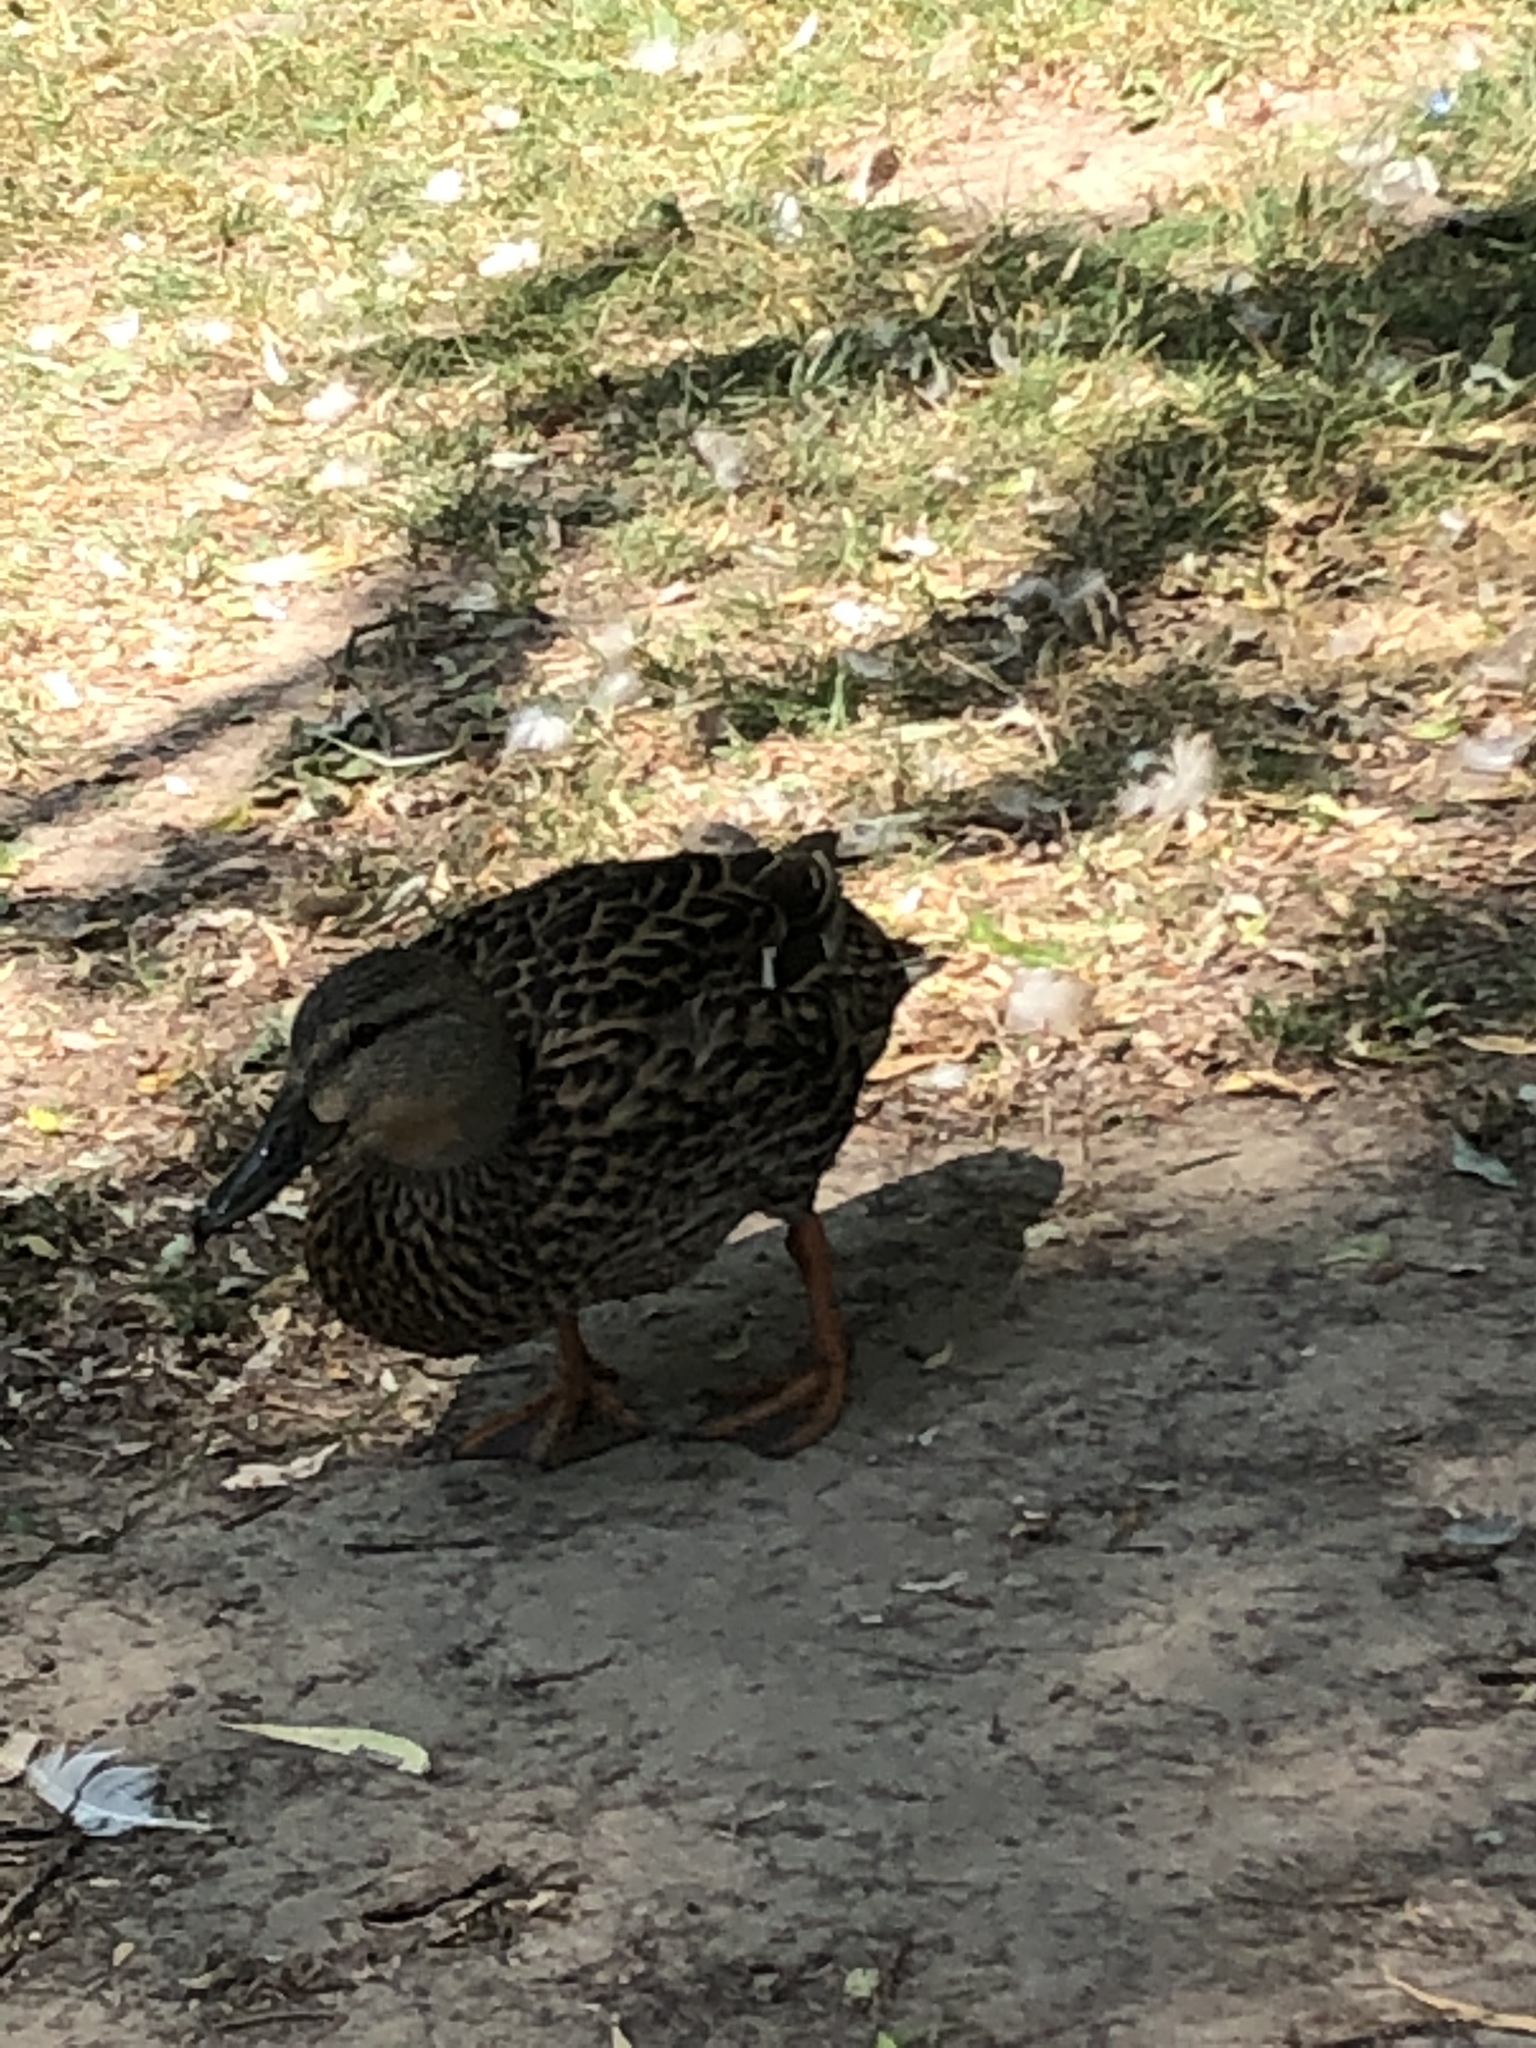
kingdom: Animalia
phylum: Chordata
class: Aves
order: Anseriformes
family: Anatidae
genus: Anas
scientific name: Anas platyrhynchos
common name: Mallard
